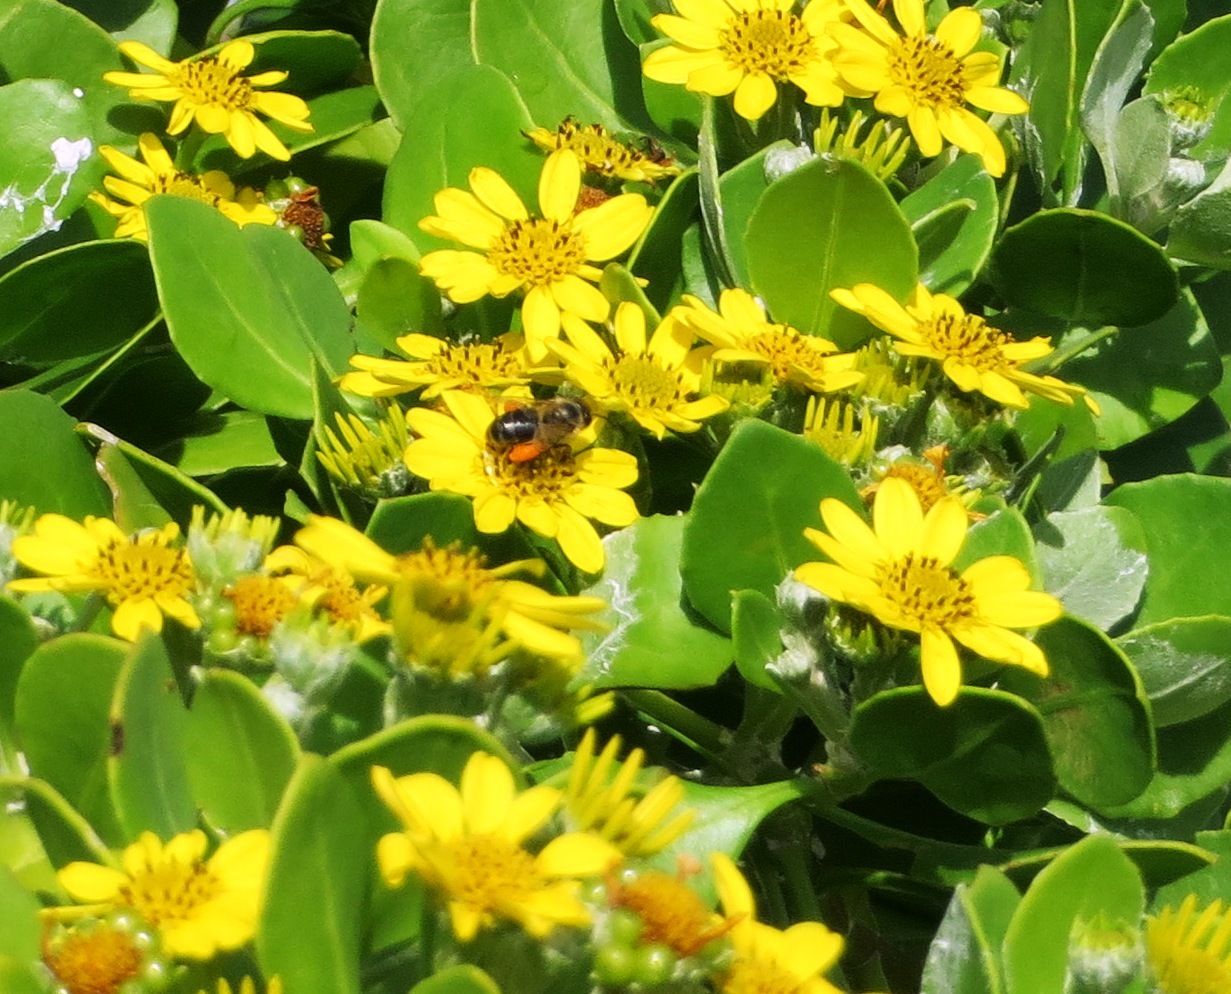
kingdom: Animalia
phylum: Arthropoda
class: Insecta
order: Hymenoptera
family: Apidae
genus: Apis
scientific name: Apis mellifera
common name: Honey bee
